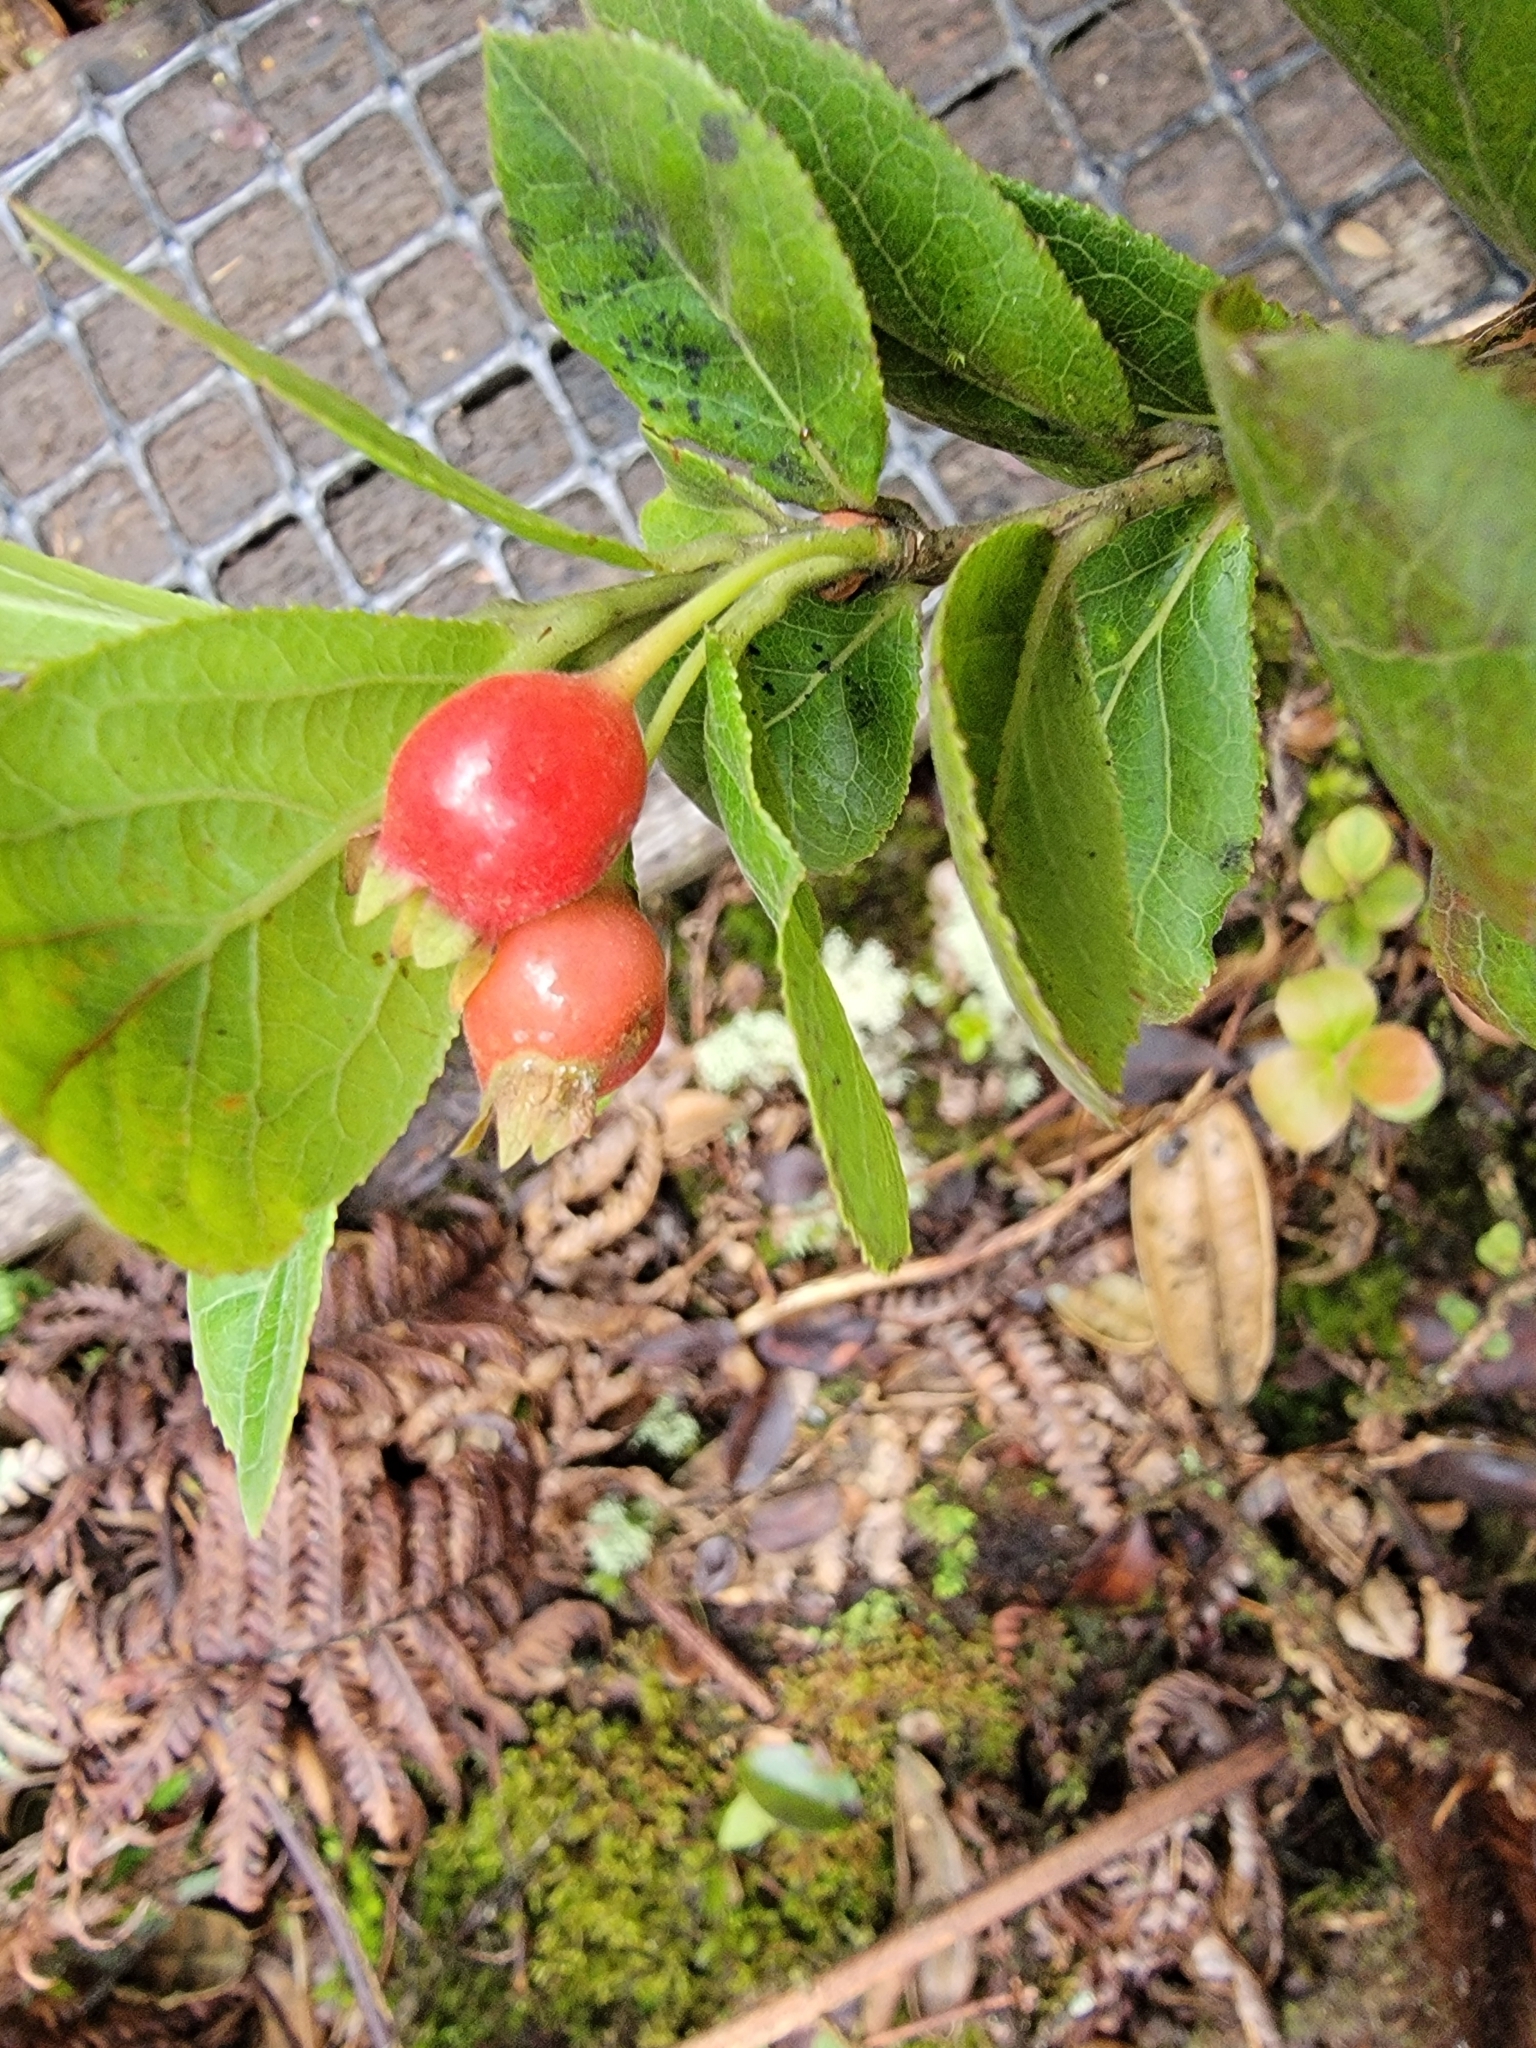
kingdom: Plantae
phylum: Tracheophyta
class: Magnoliopsida
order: Ericales
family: Ericaceae
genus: Vaccinium
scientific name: Vaccinium calycinum
